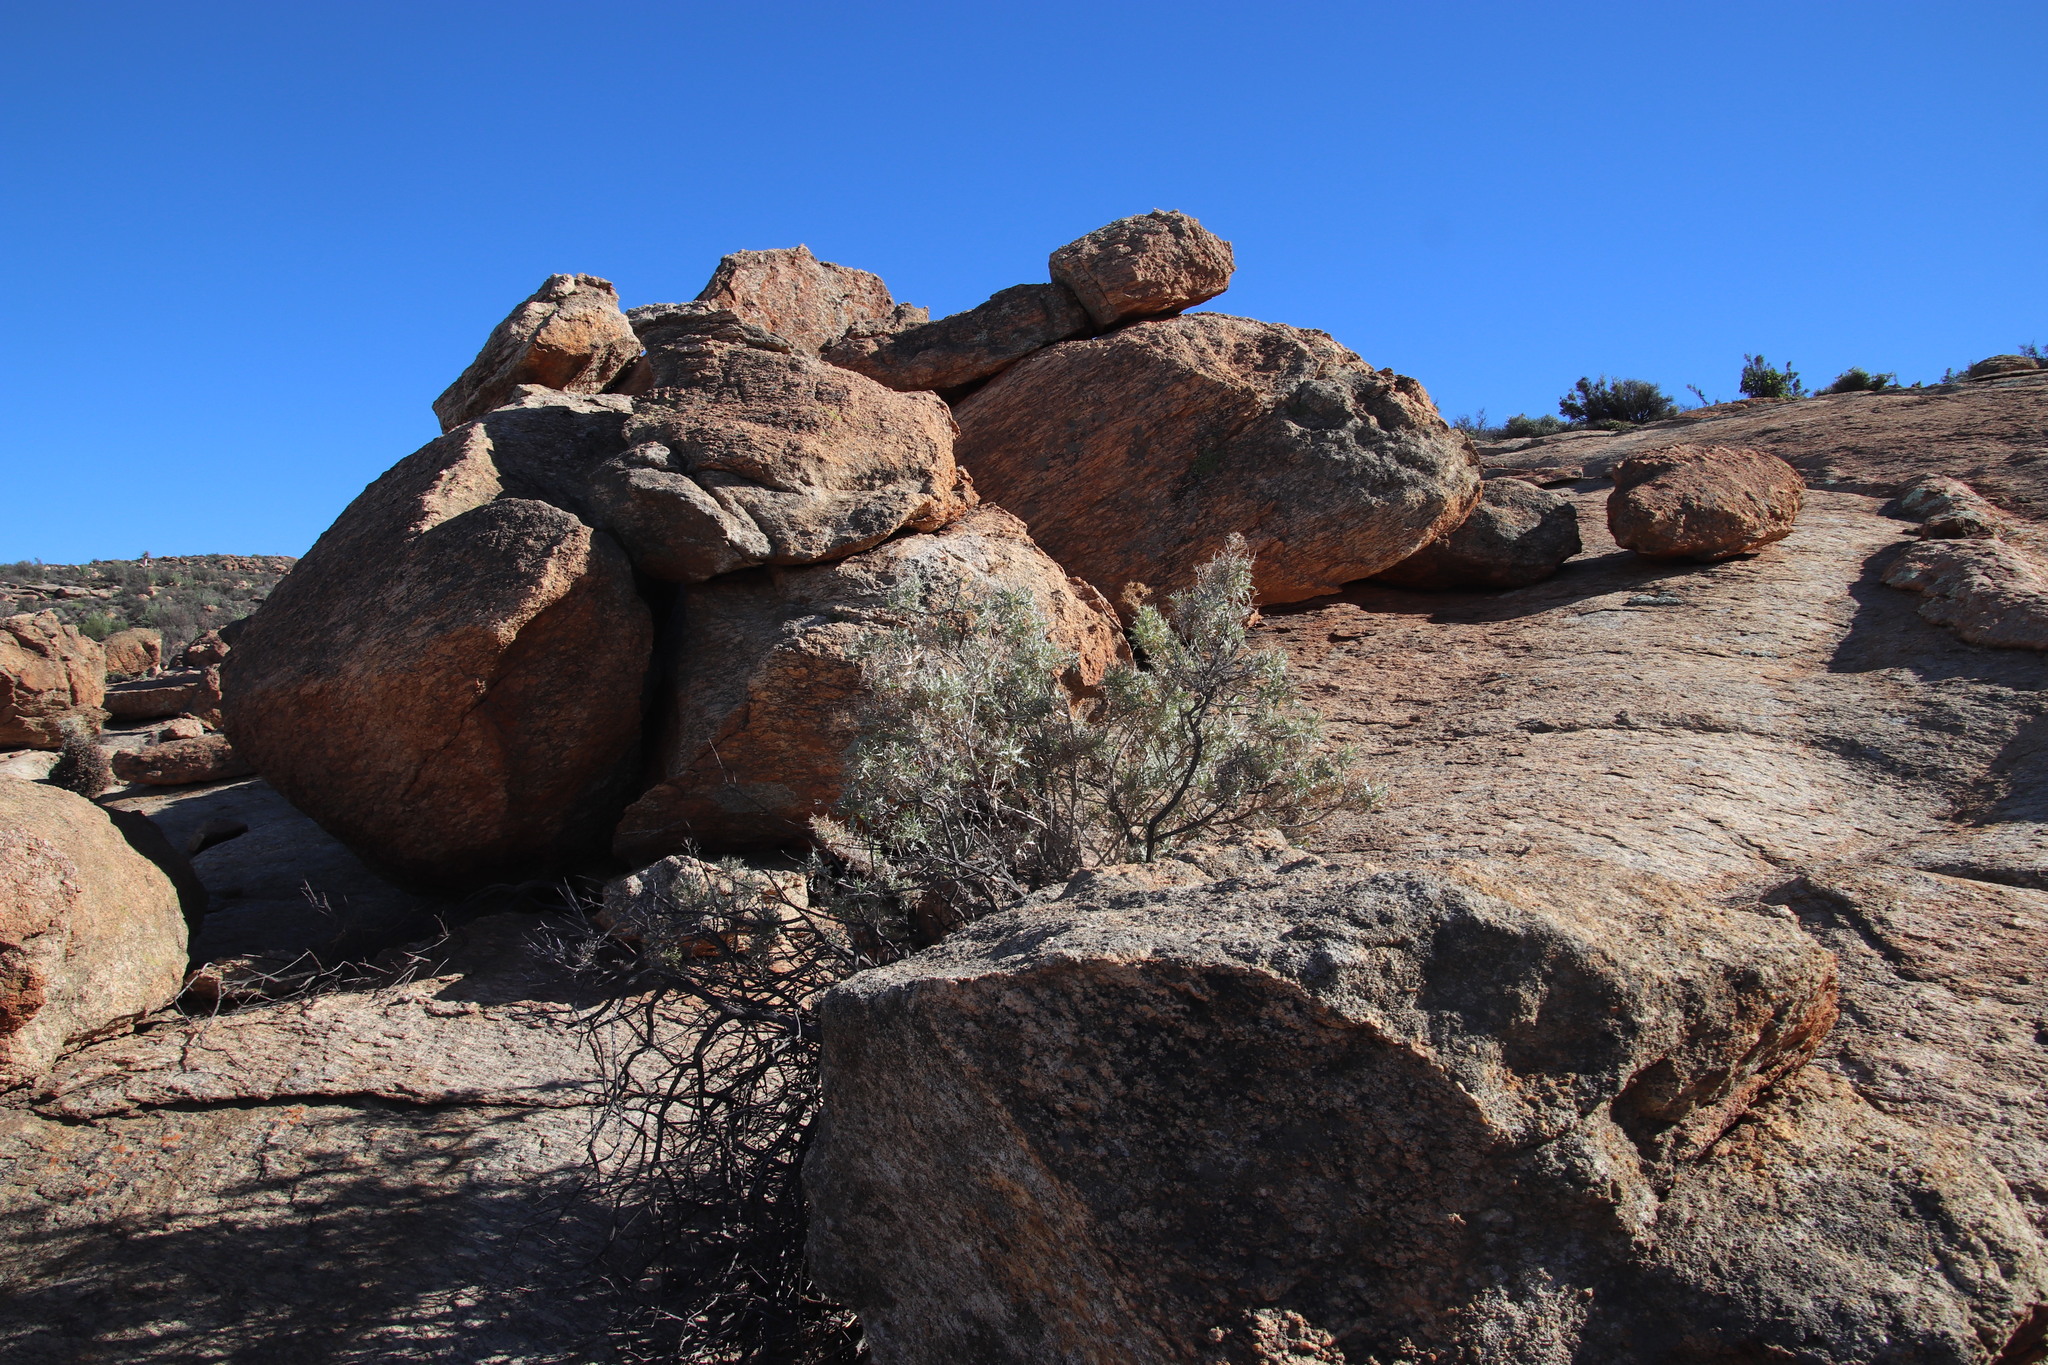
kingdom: Plantae
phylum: Tracheophyta
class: Magnoliopsida
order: Asterales
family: Asteraceae
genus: Berkheya
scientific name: Berkheya canescens
